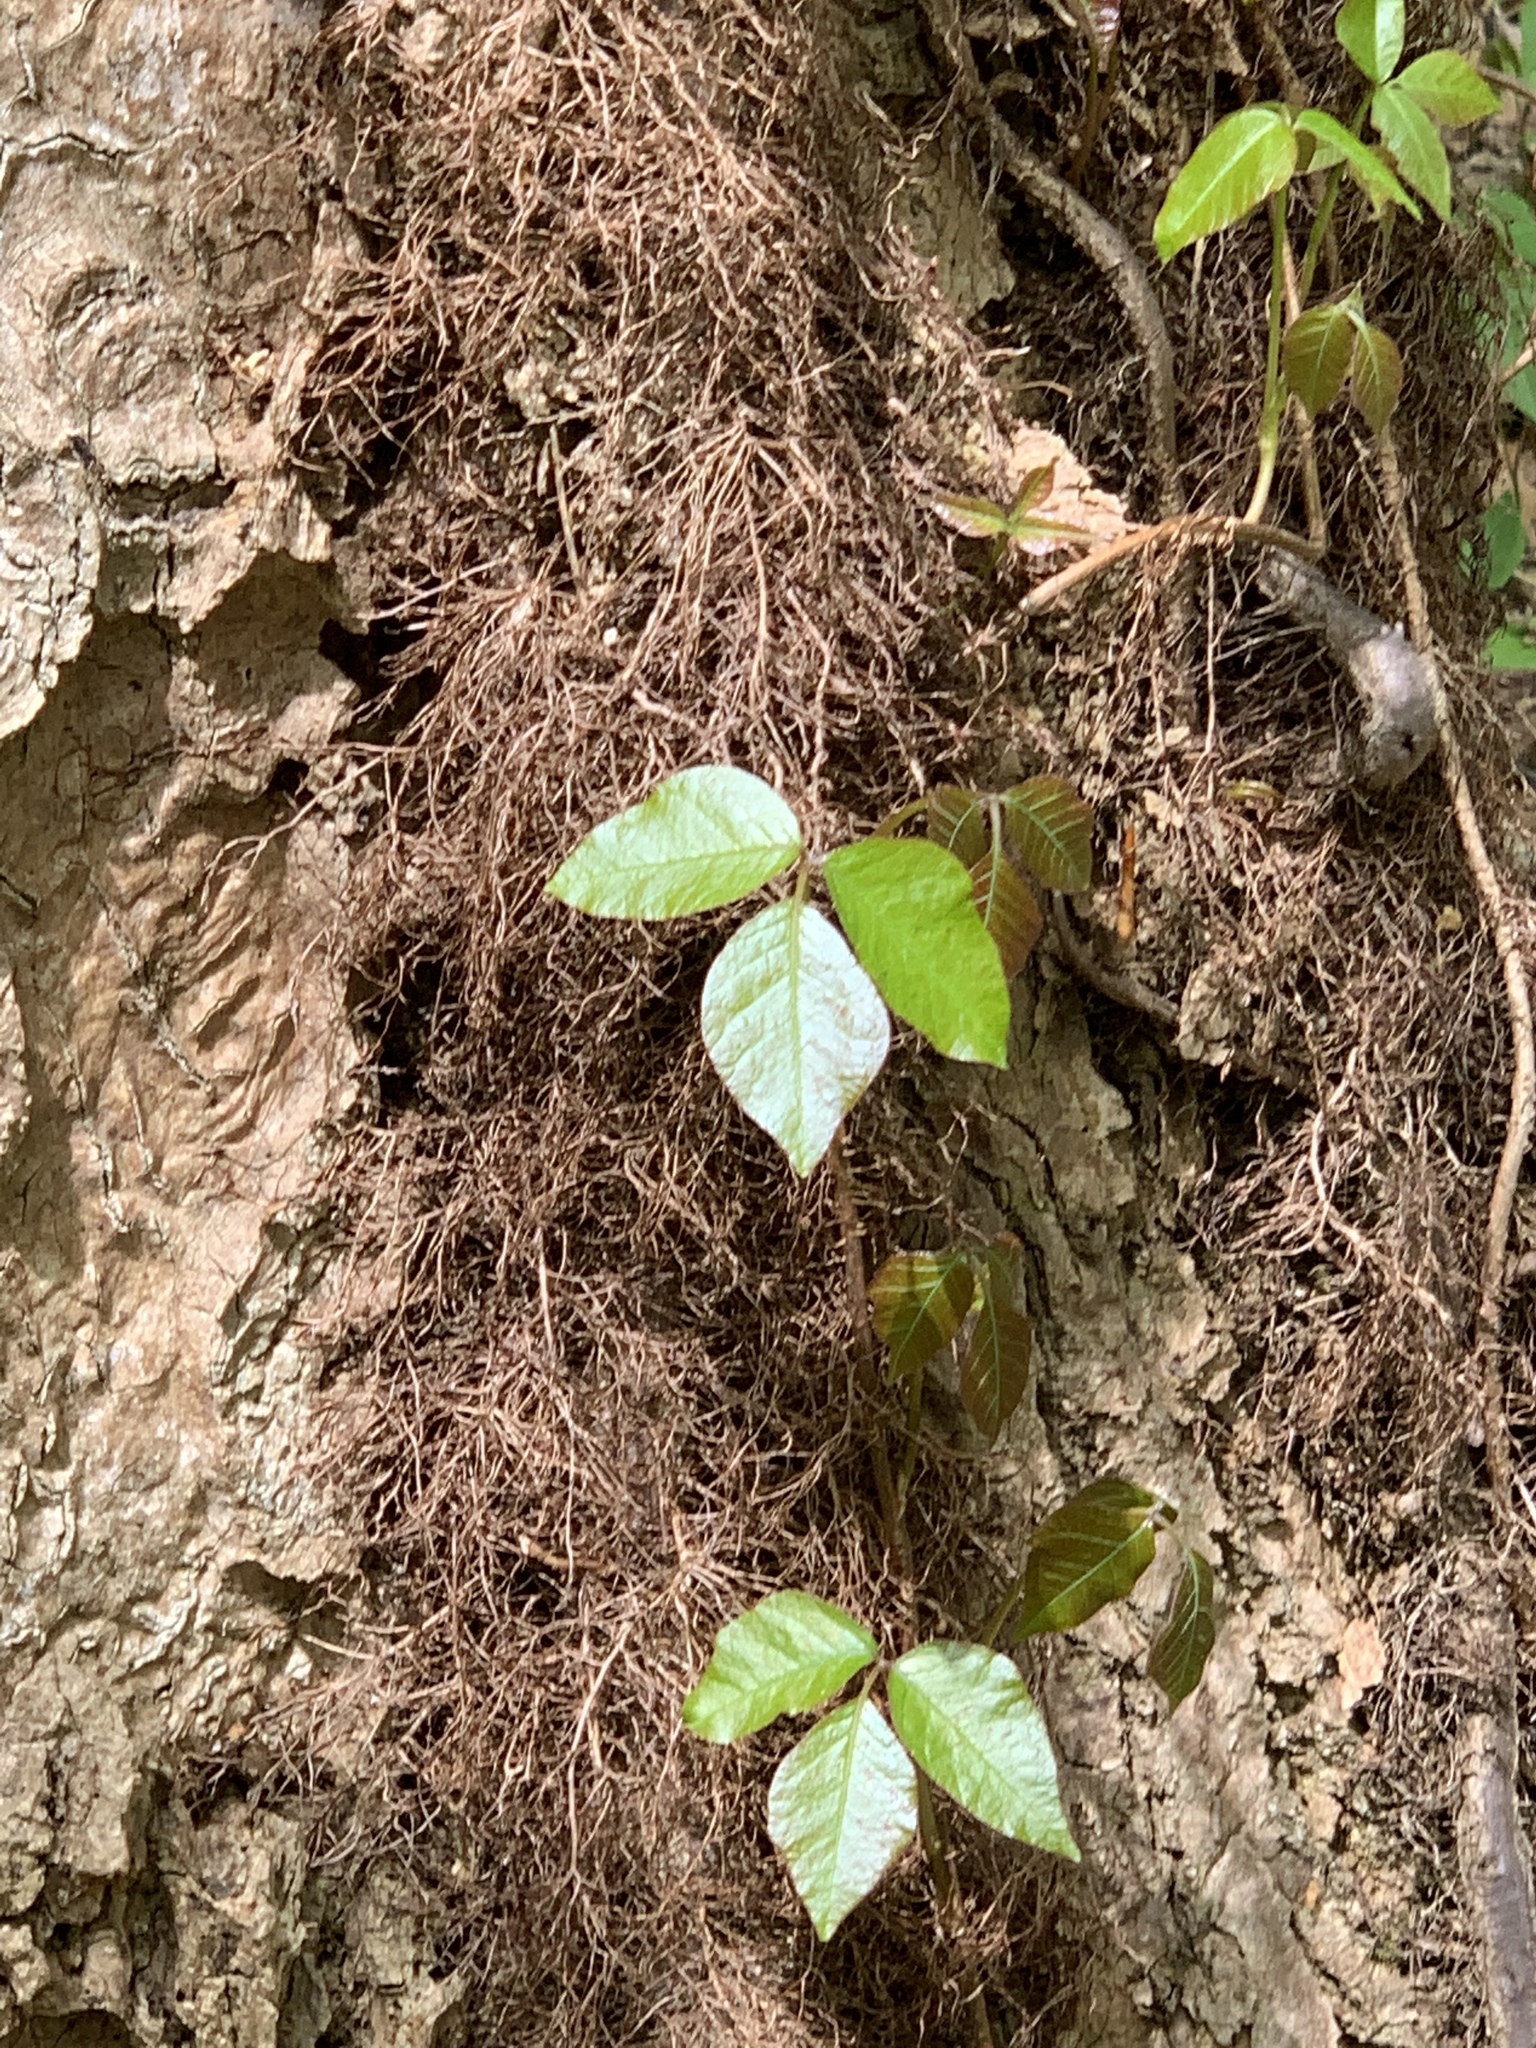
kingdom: Plantae
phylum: Tracheophyta
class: Magnoliopsida
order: Sapindales
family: Anacardiaceae
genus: Toxicodendron
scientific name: Toxicodendron radicans
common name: Poison ivy
